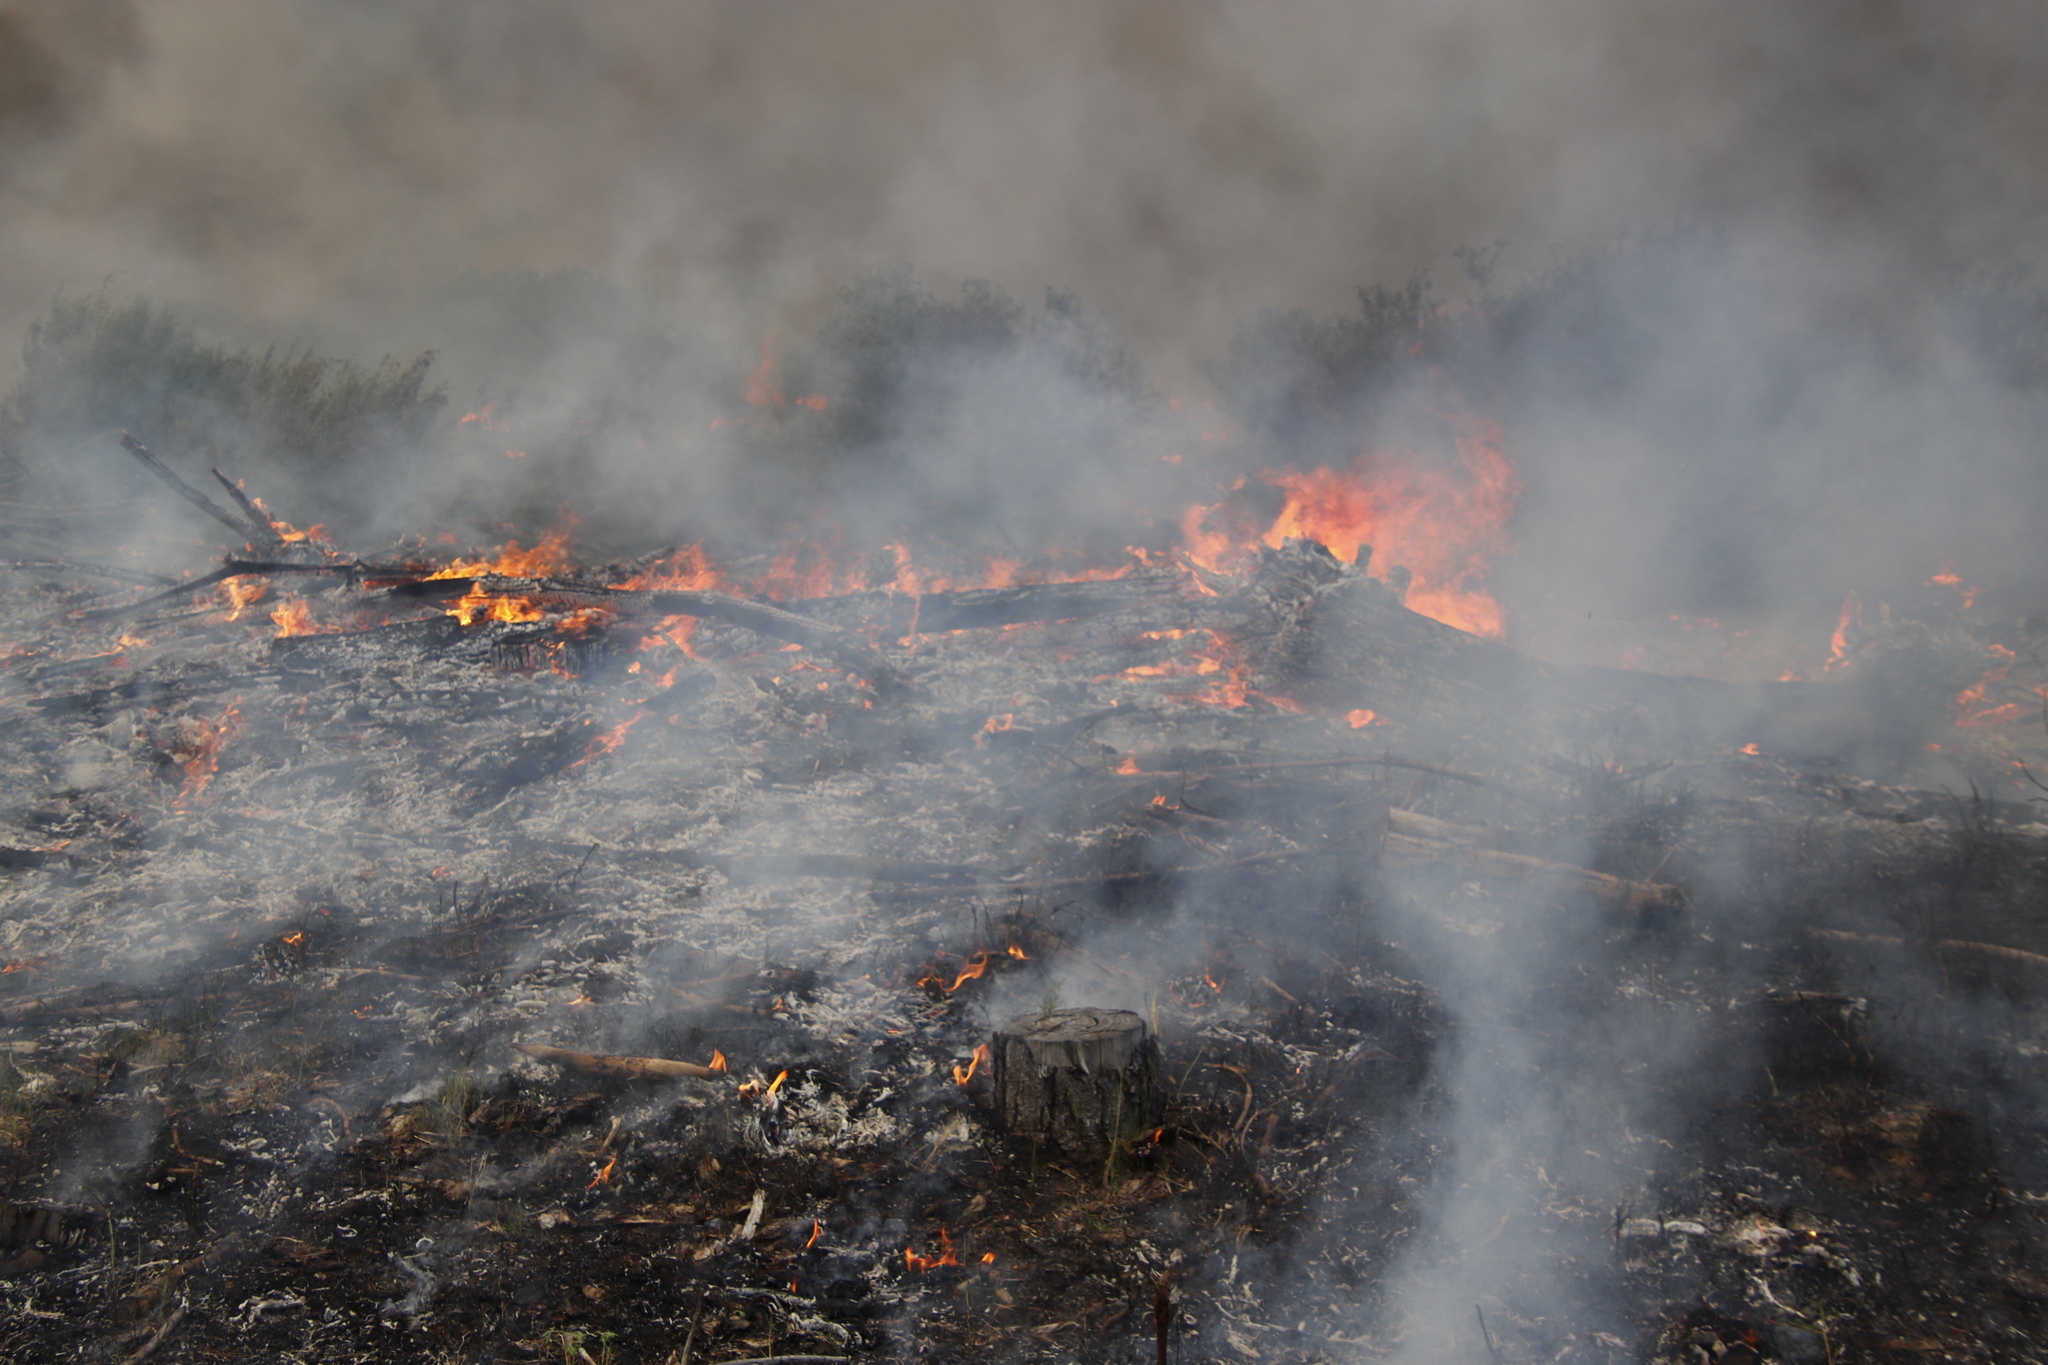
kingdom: Plantae
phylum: Tracheophyta
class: Pinopsida
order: Pinales
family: Pinaceae
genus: Pinus
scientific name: Pinus radiata
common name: Monterey pine
